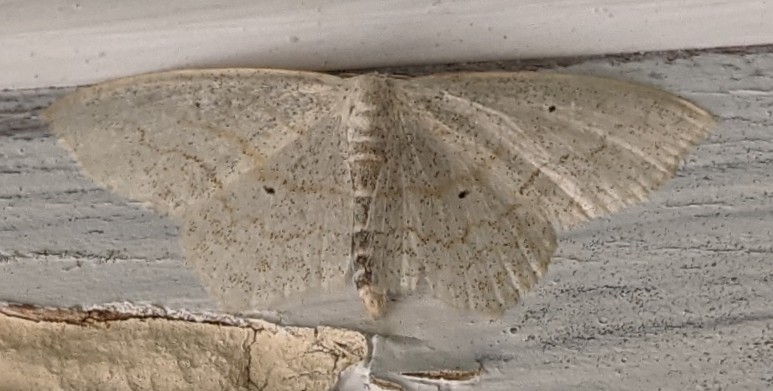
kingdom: Animalia
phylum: Arthropoda
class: Insecta
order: Lepidoptera
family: Geometridae
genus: Scopula
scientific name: Scopula limboundata
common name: Large lace border
